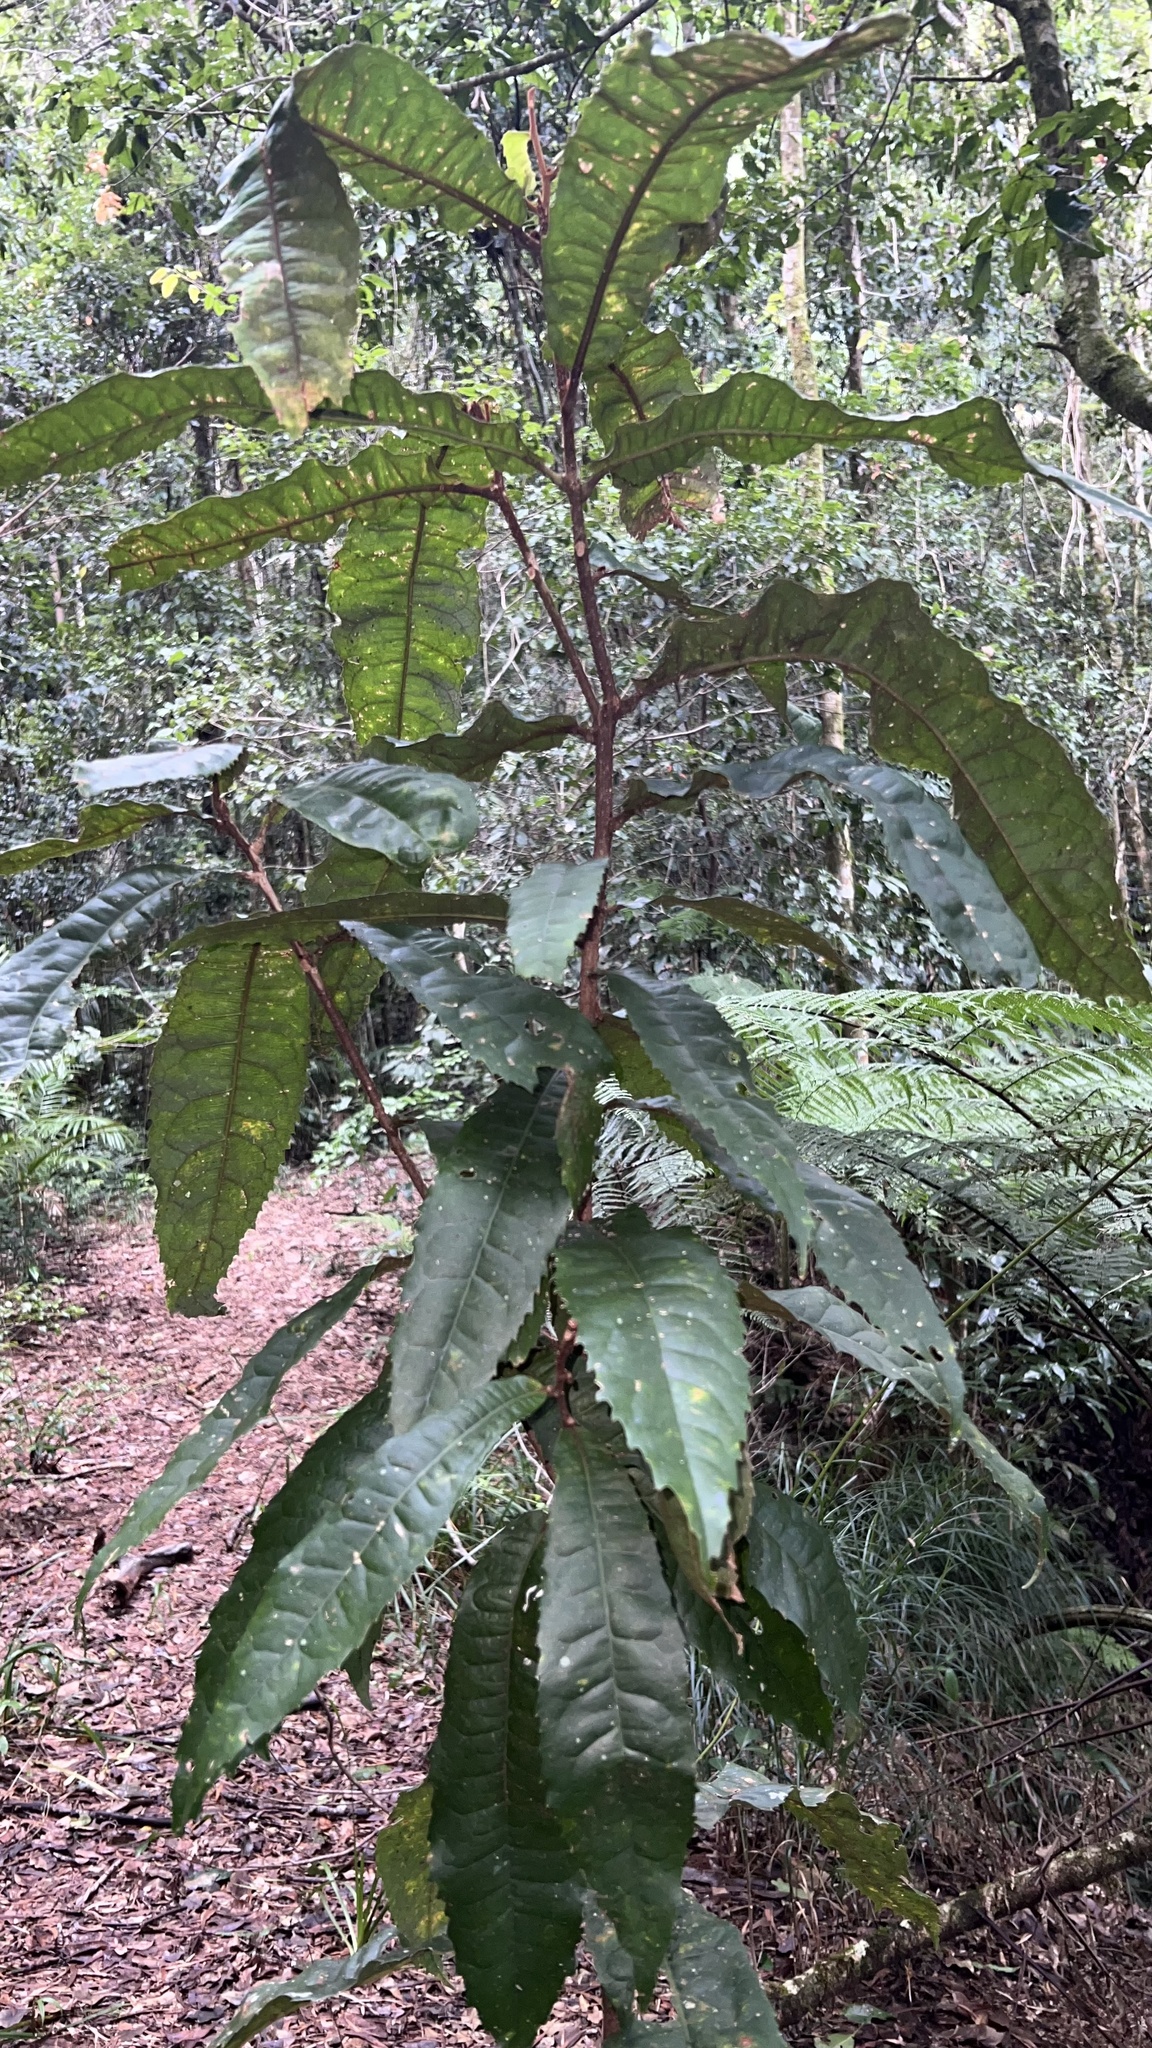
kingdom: Plantae
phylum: Tracheophyta
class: Magnoliopsida
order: Proteales
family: Proteaceae
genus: Helicia
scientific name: Helicia ferruginea
